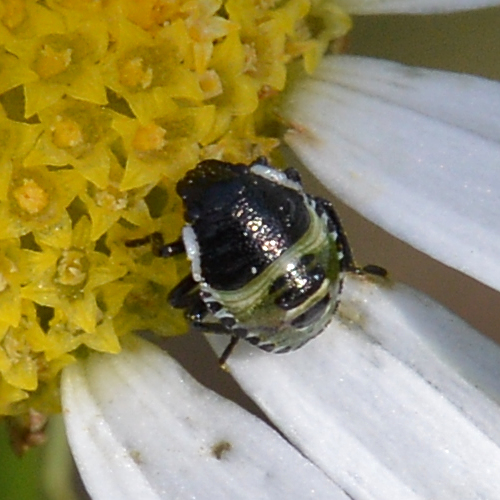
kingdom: Animalia
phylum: Arthropoda
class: Insecta
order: Hemiptera
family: Pentatomidae
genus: Palomena
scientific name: Palomena prasina
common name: Green shieldbug
